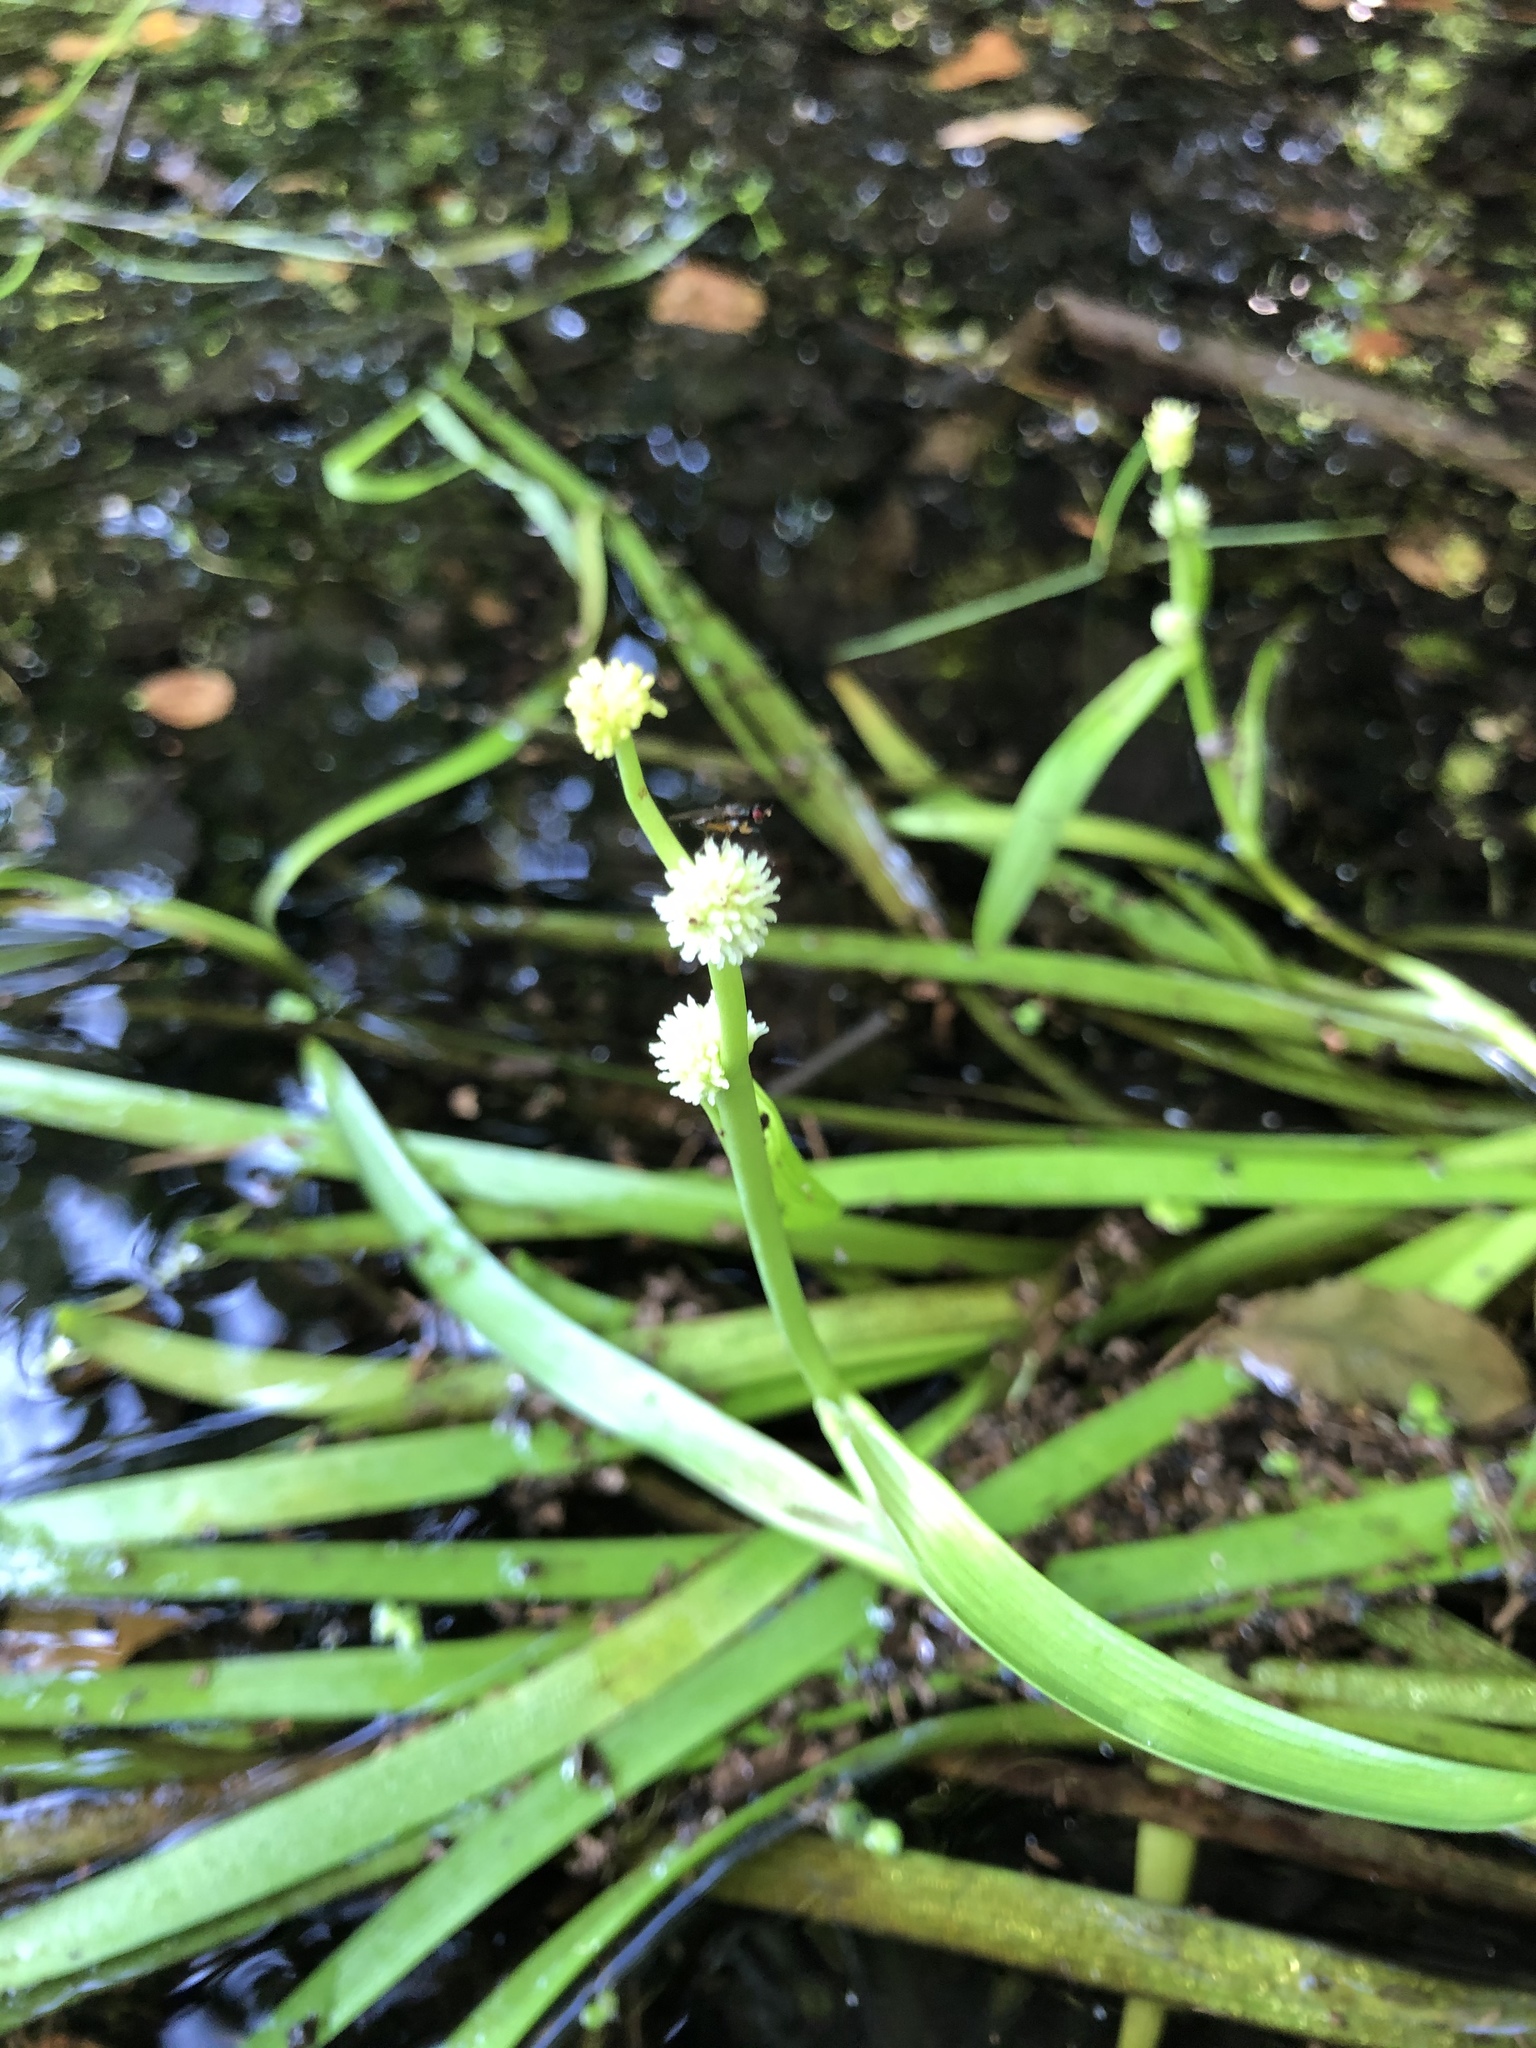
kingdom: Plantae
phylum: Tracheophyta
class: Liliopsida
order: Poales
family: Typhaceae
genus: Sparganium
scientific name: Sparganium natans
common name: Least bur-reed
